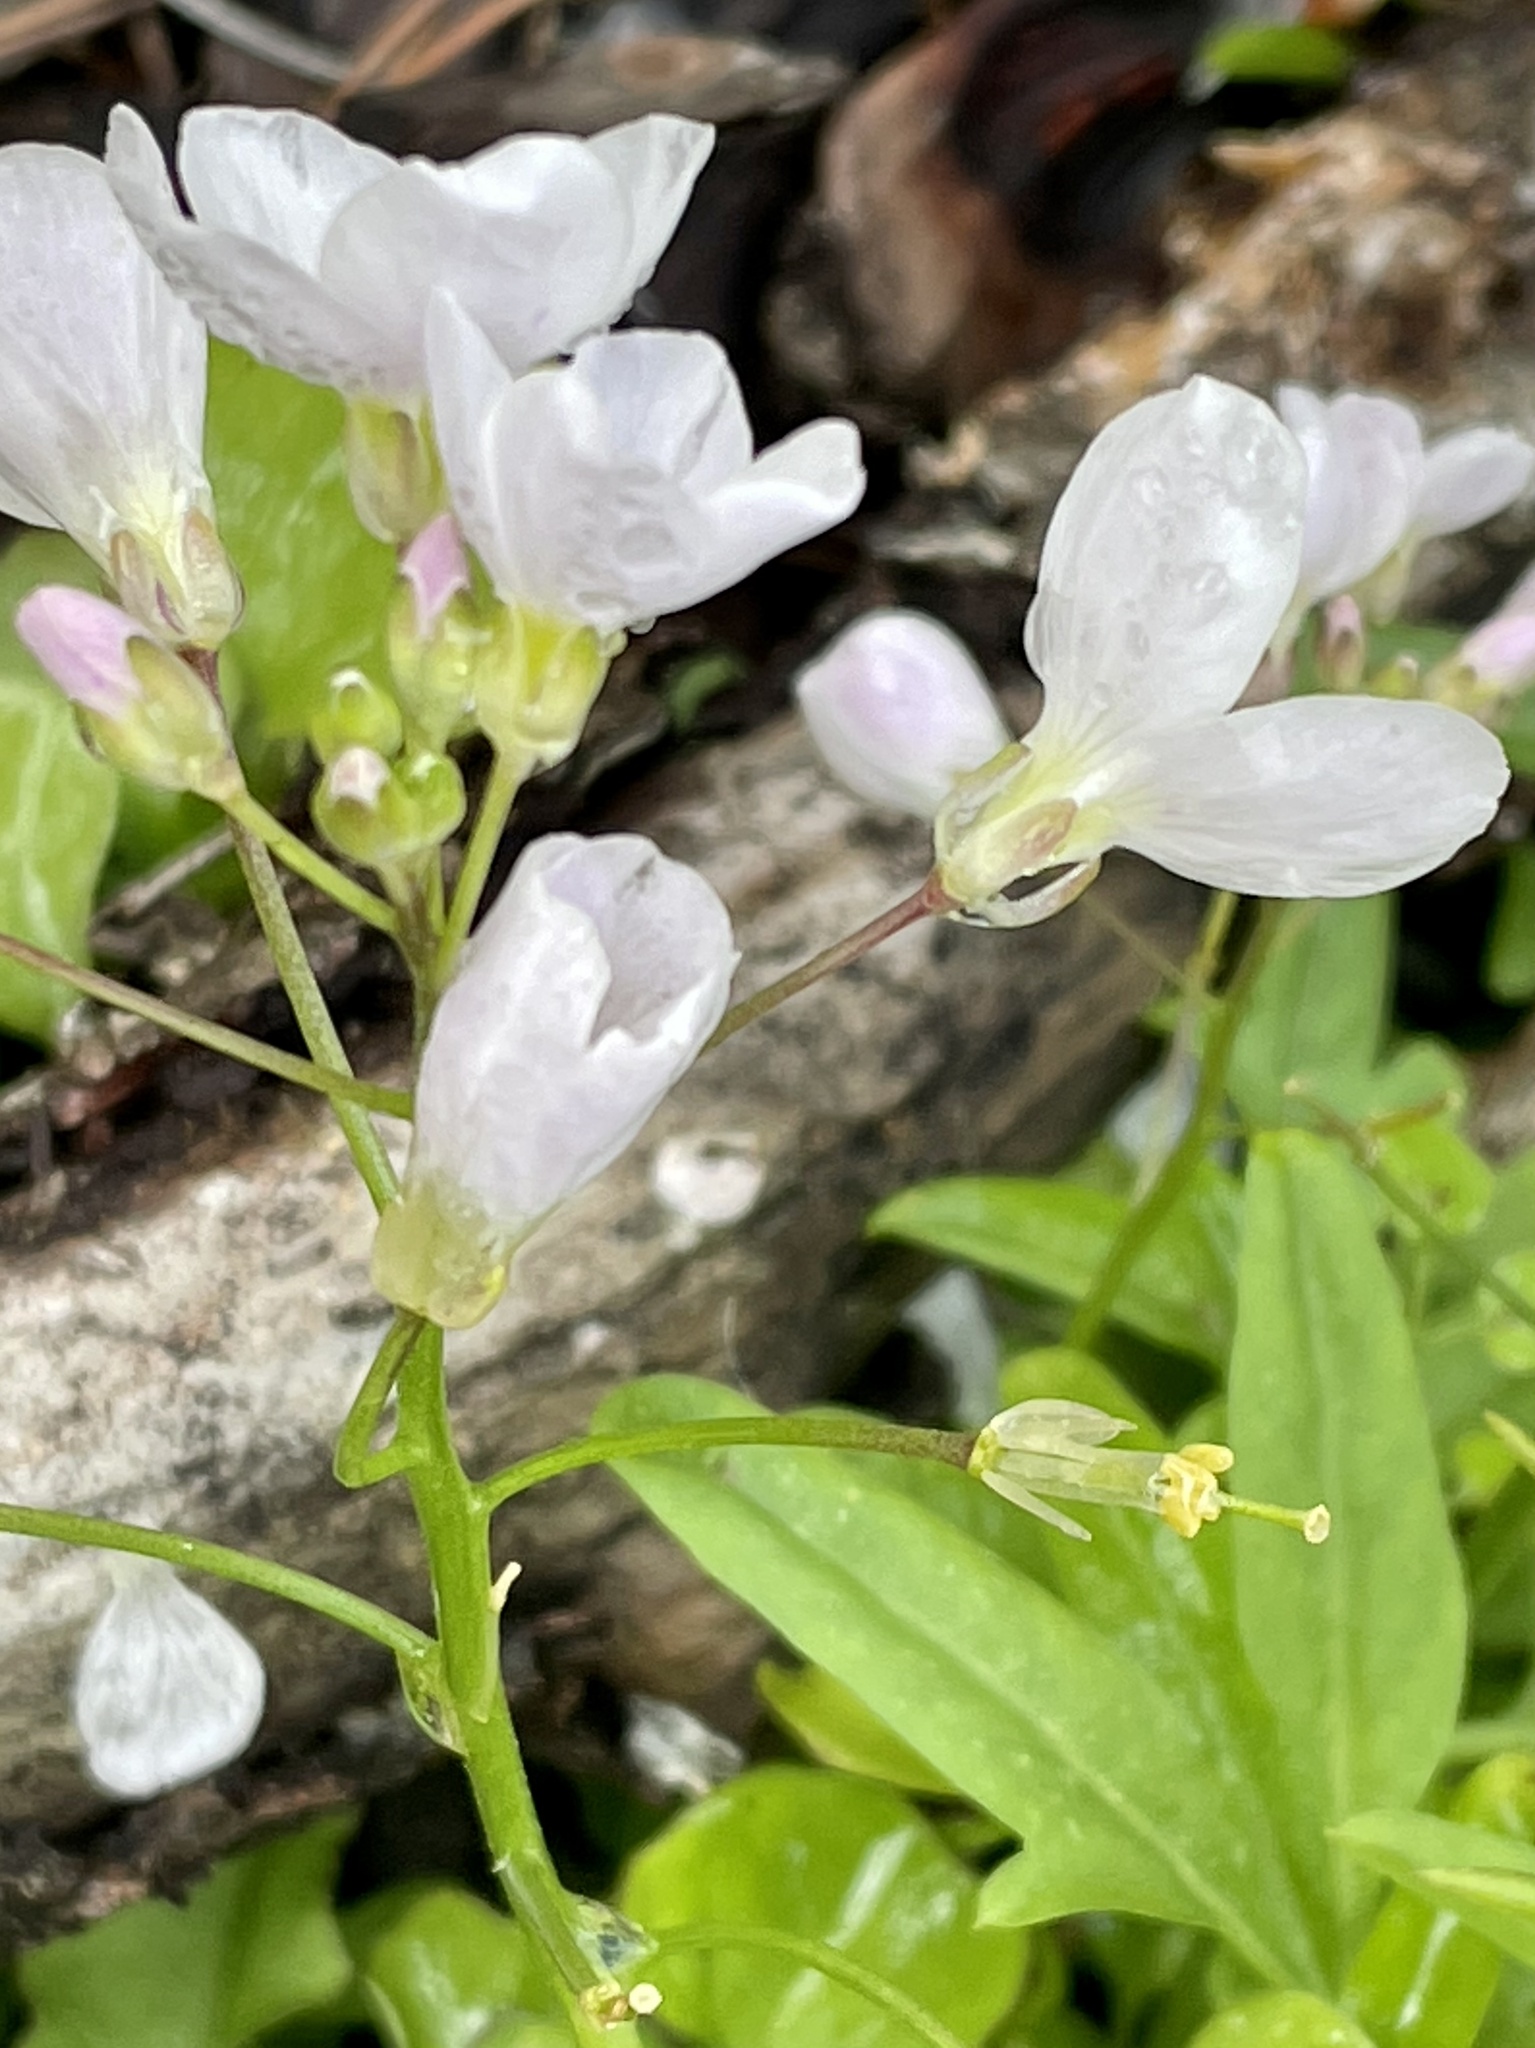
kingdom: Plantae
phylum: Tracheophyta
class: Magnoliopsida
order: Brassicales
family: Brassicaceae
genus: Cardamine
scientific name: Cardamine californica
